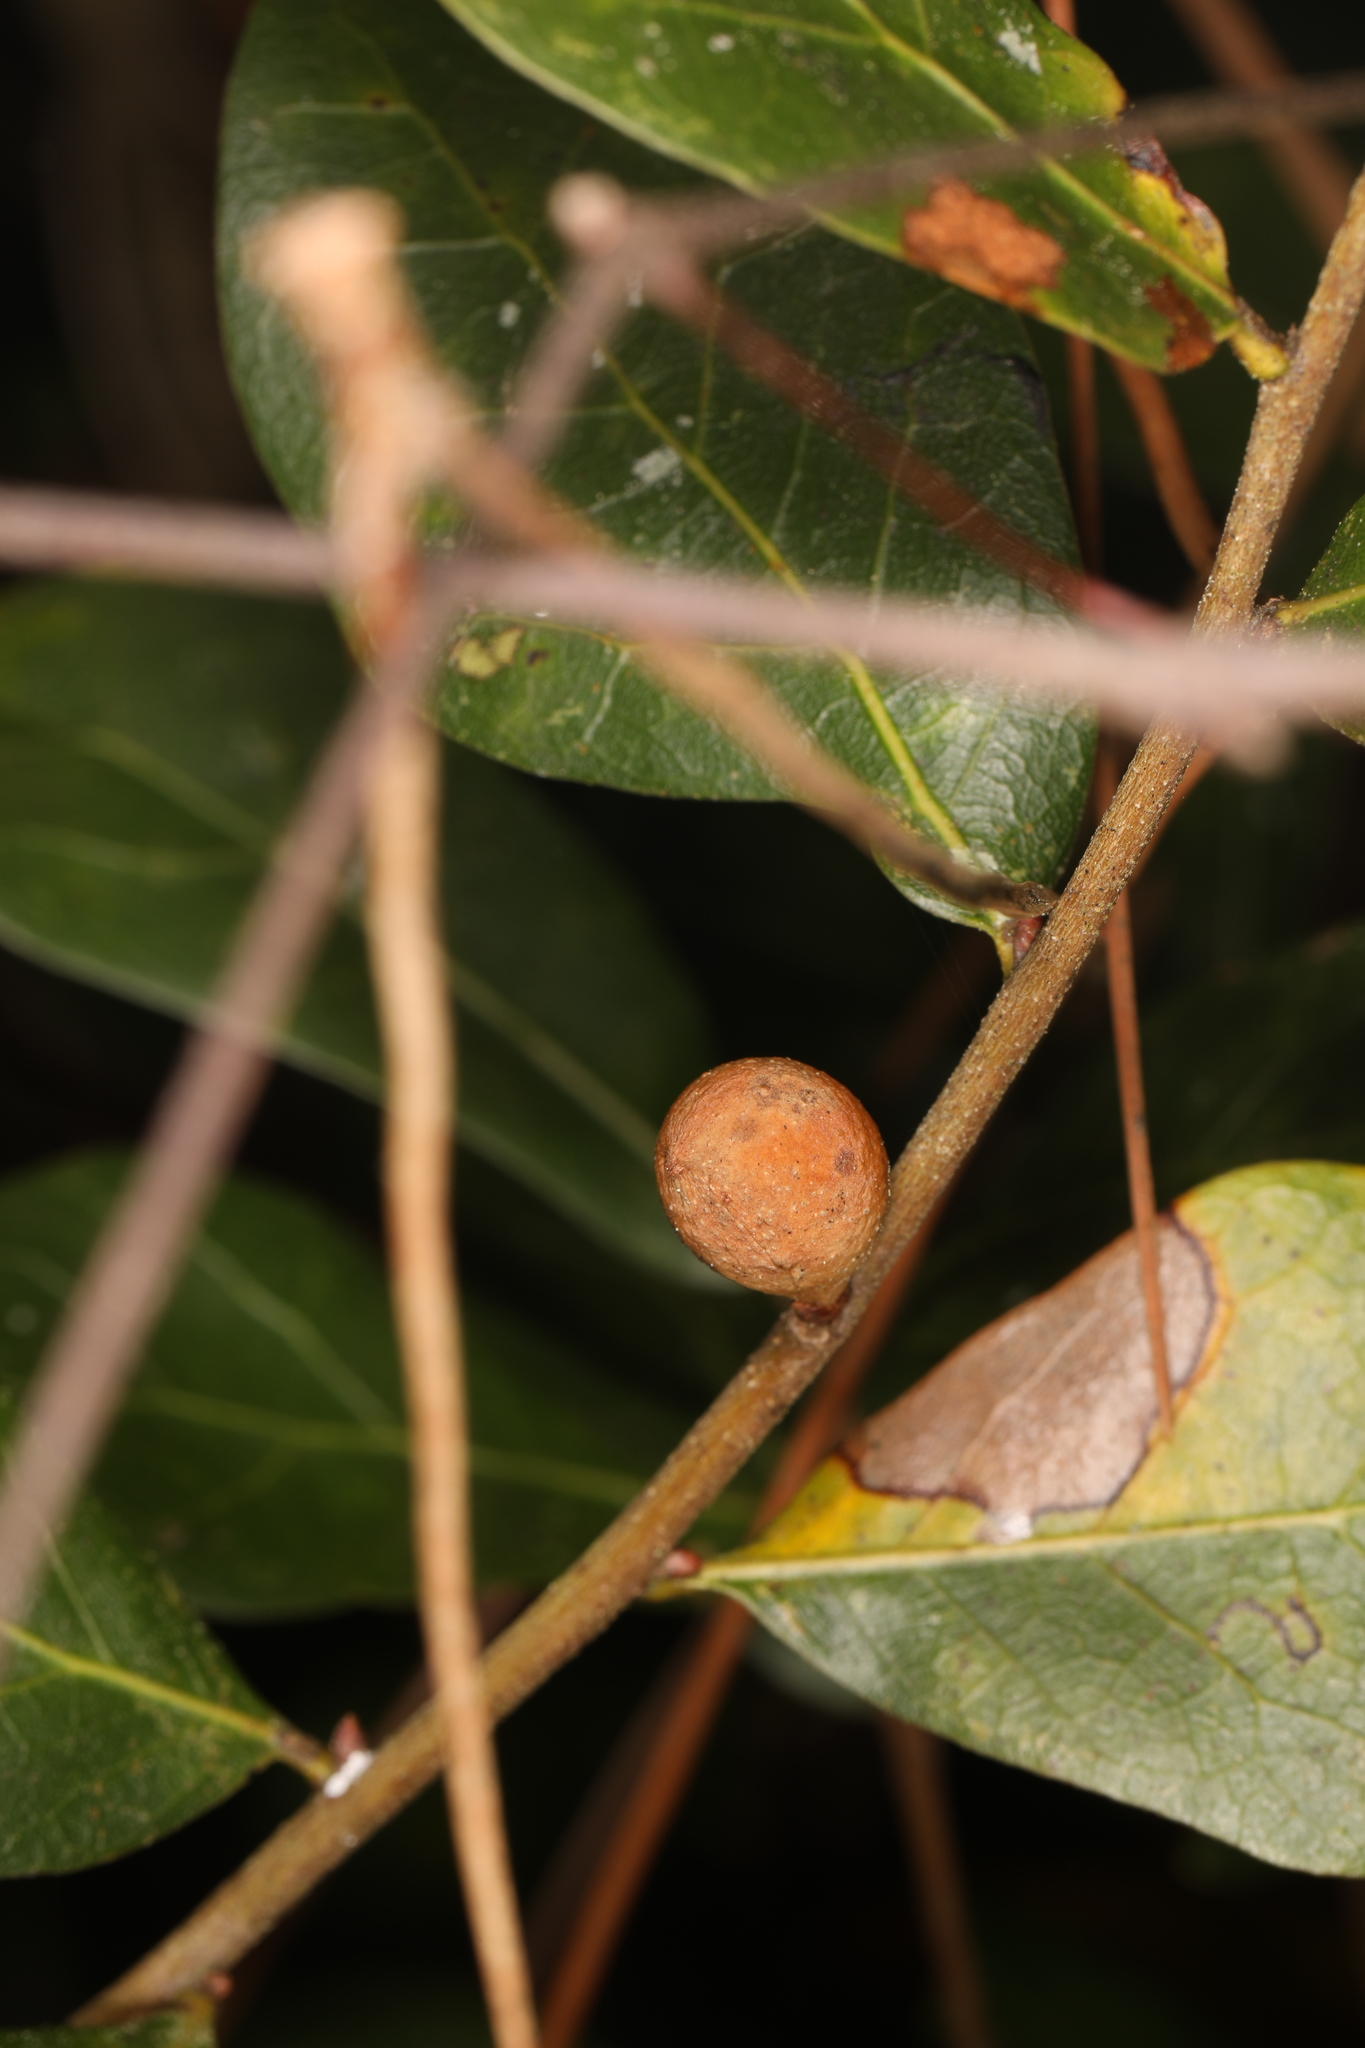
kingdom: Animalia
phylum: Arthropoda
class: Insecta
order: Hymenoptera
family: Cynipidae
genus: Amphibolips
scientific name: Amphibolips
